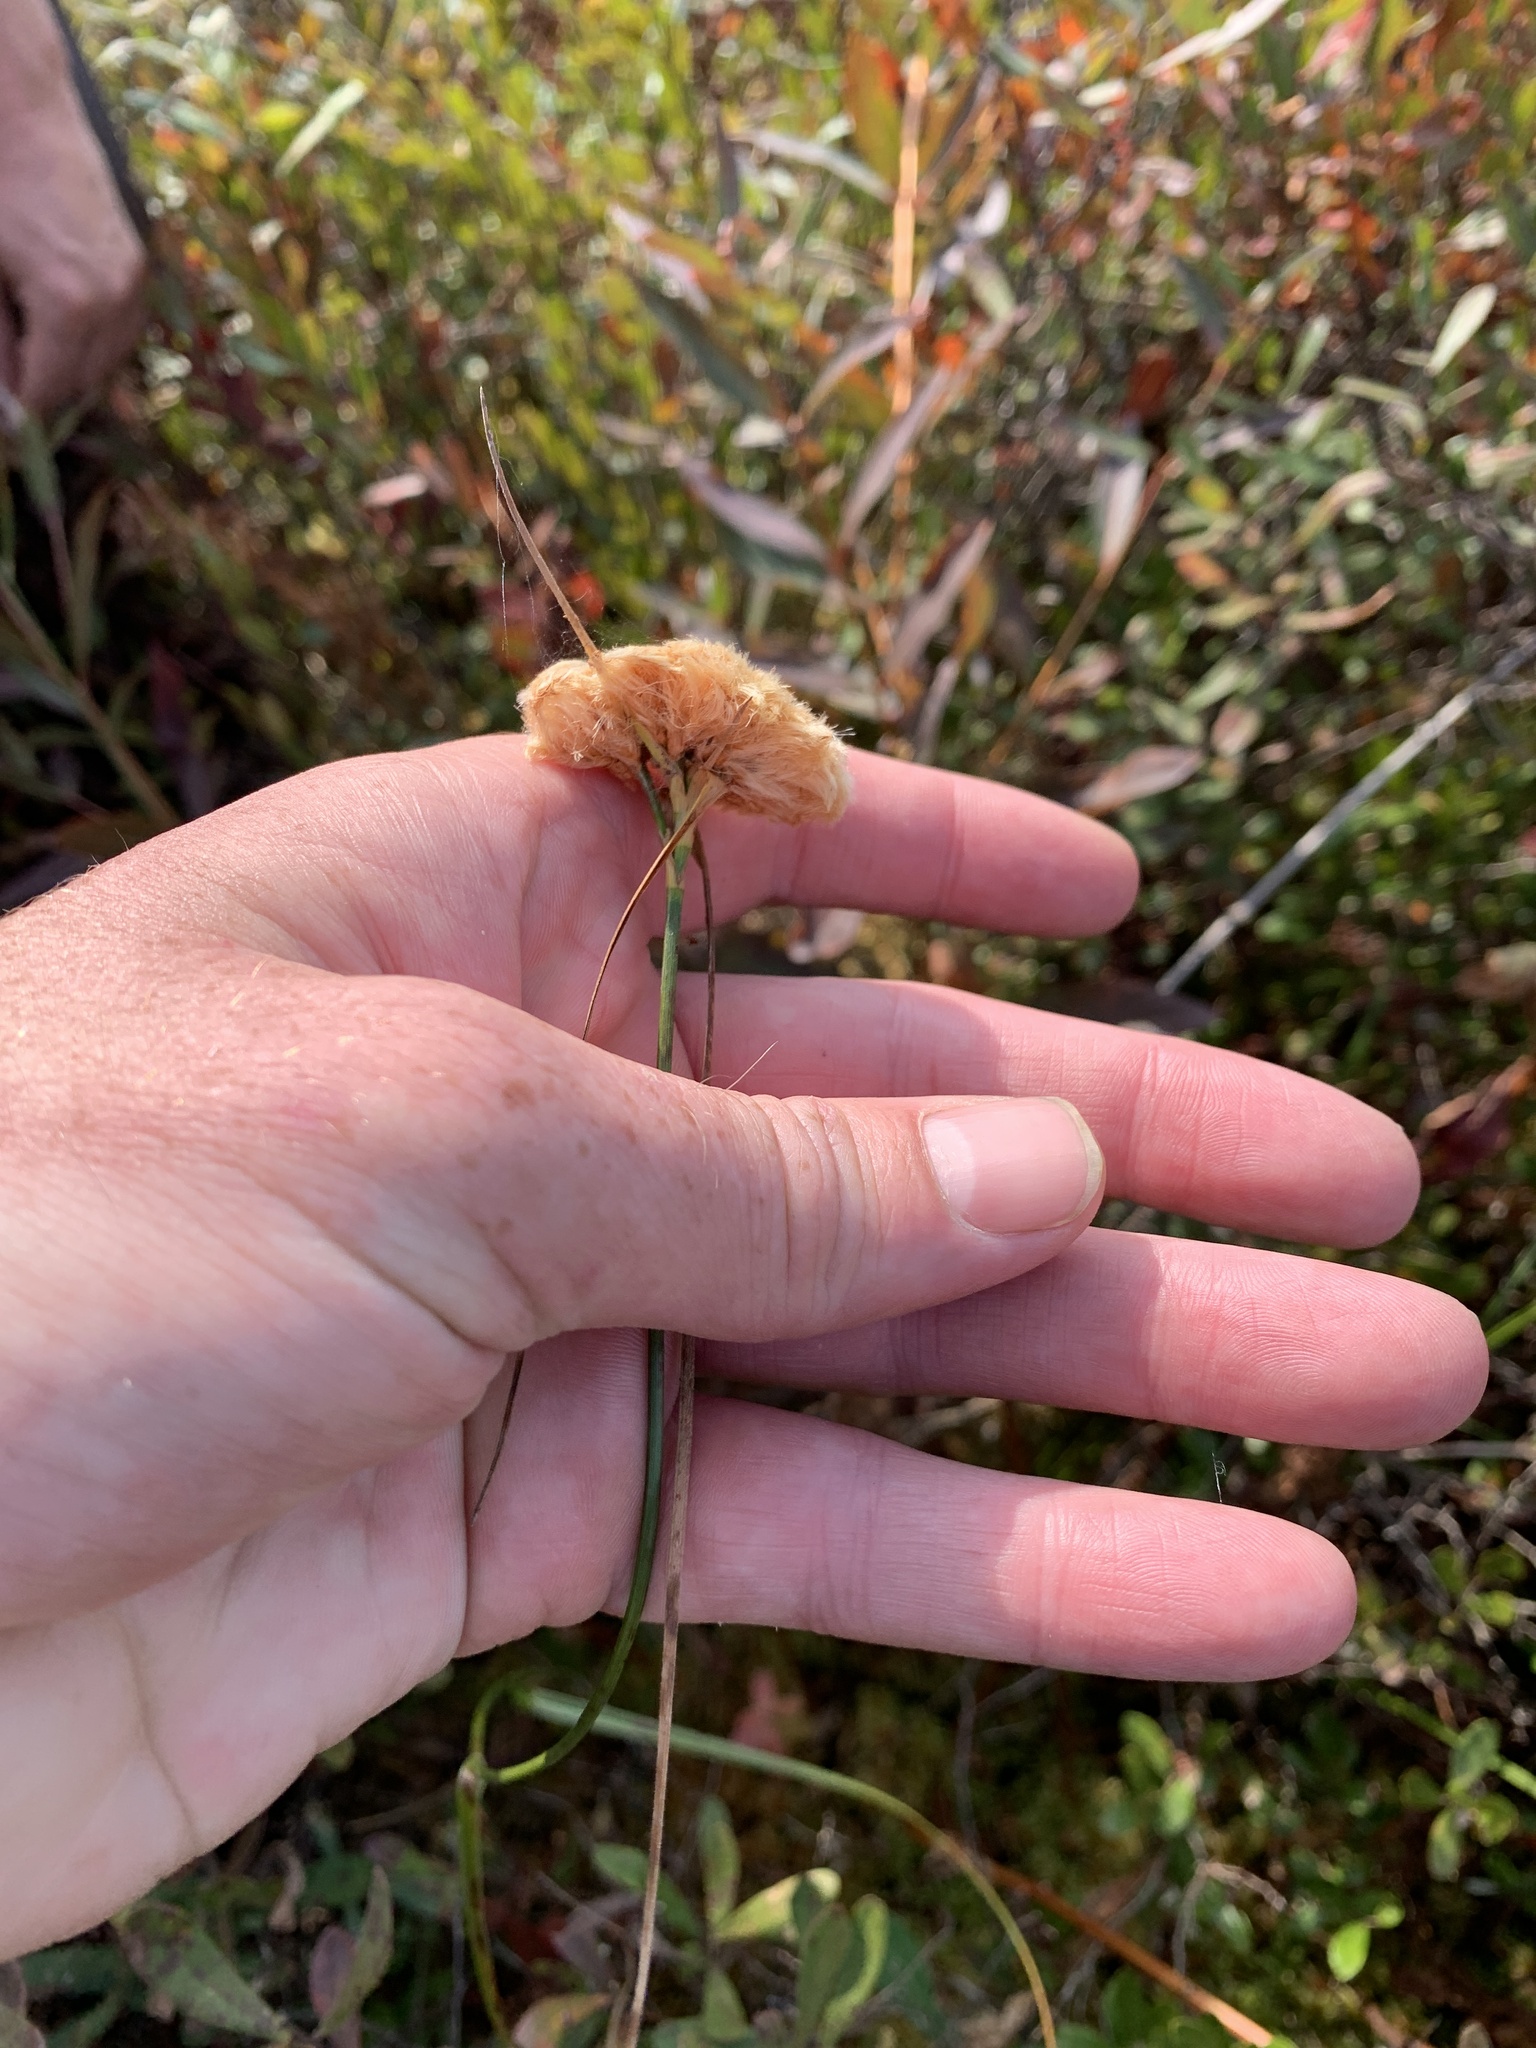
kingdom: Plantae
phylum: Tracheophyta
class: Liliopsida
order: Poales
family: Cyperaceae
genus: Eriophorum
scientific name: Eriophorum virginicum
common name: Tawny cottongrass
